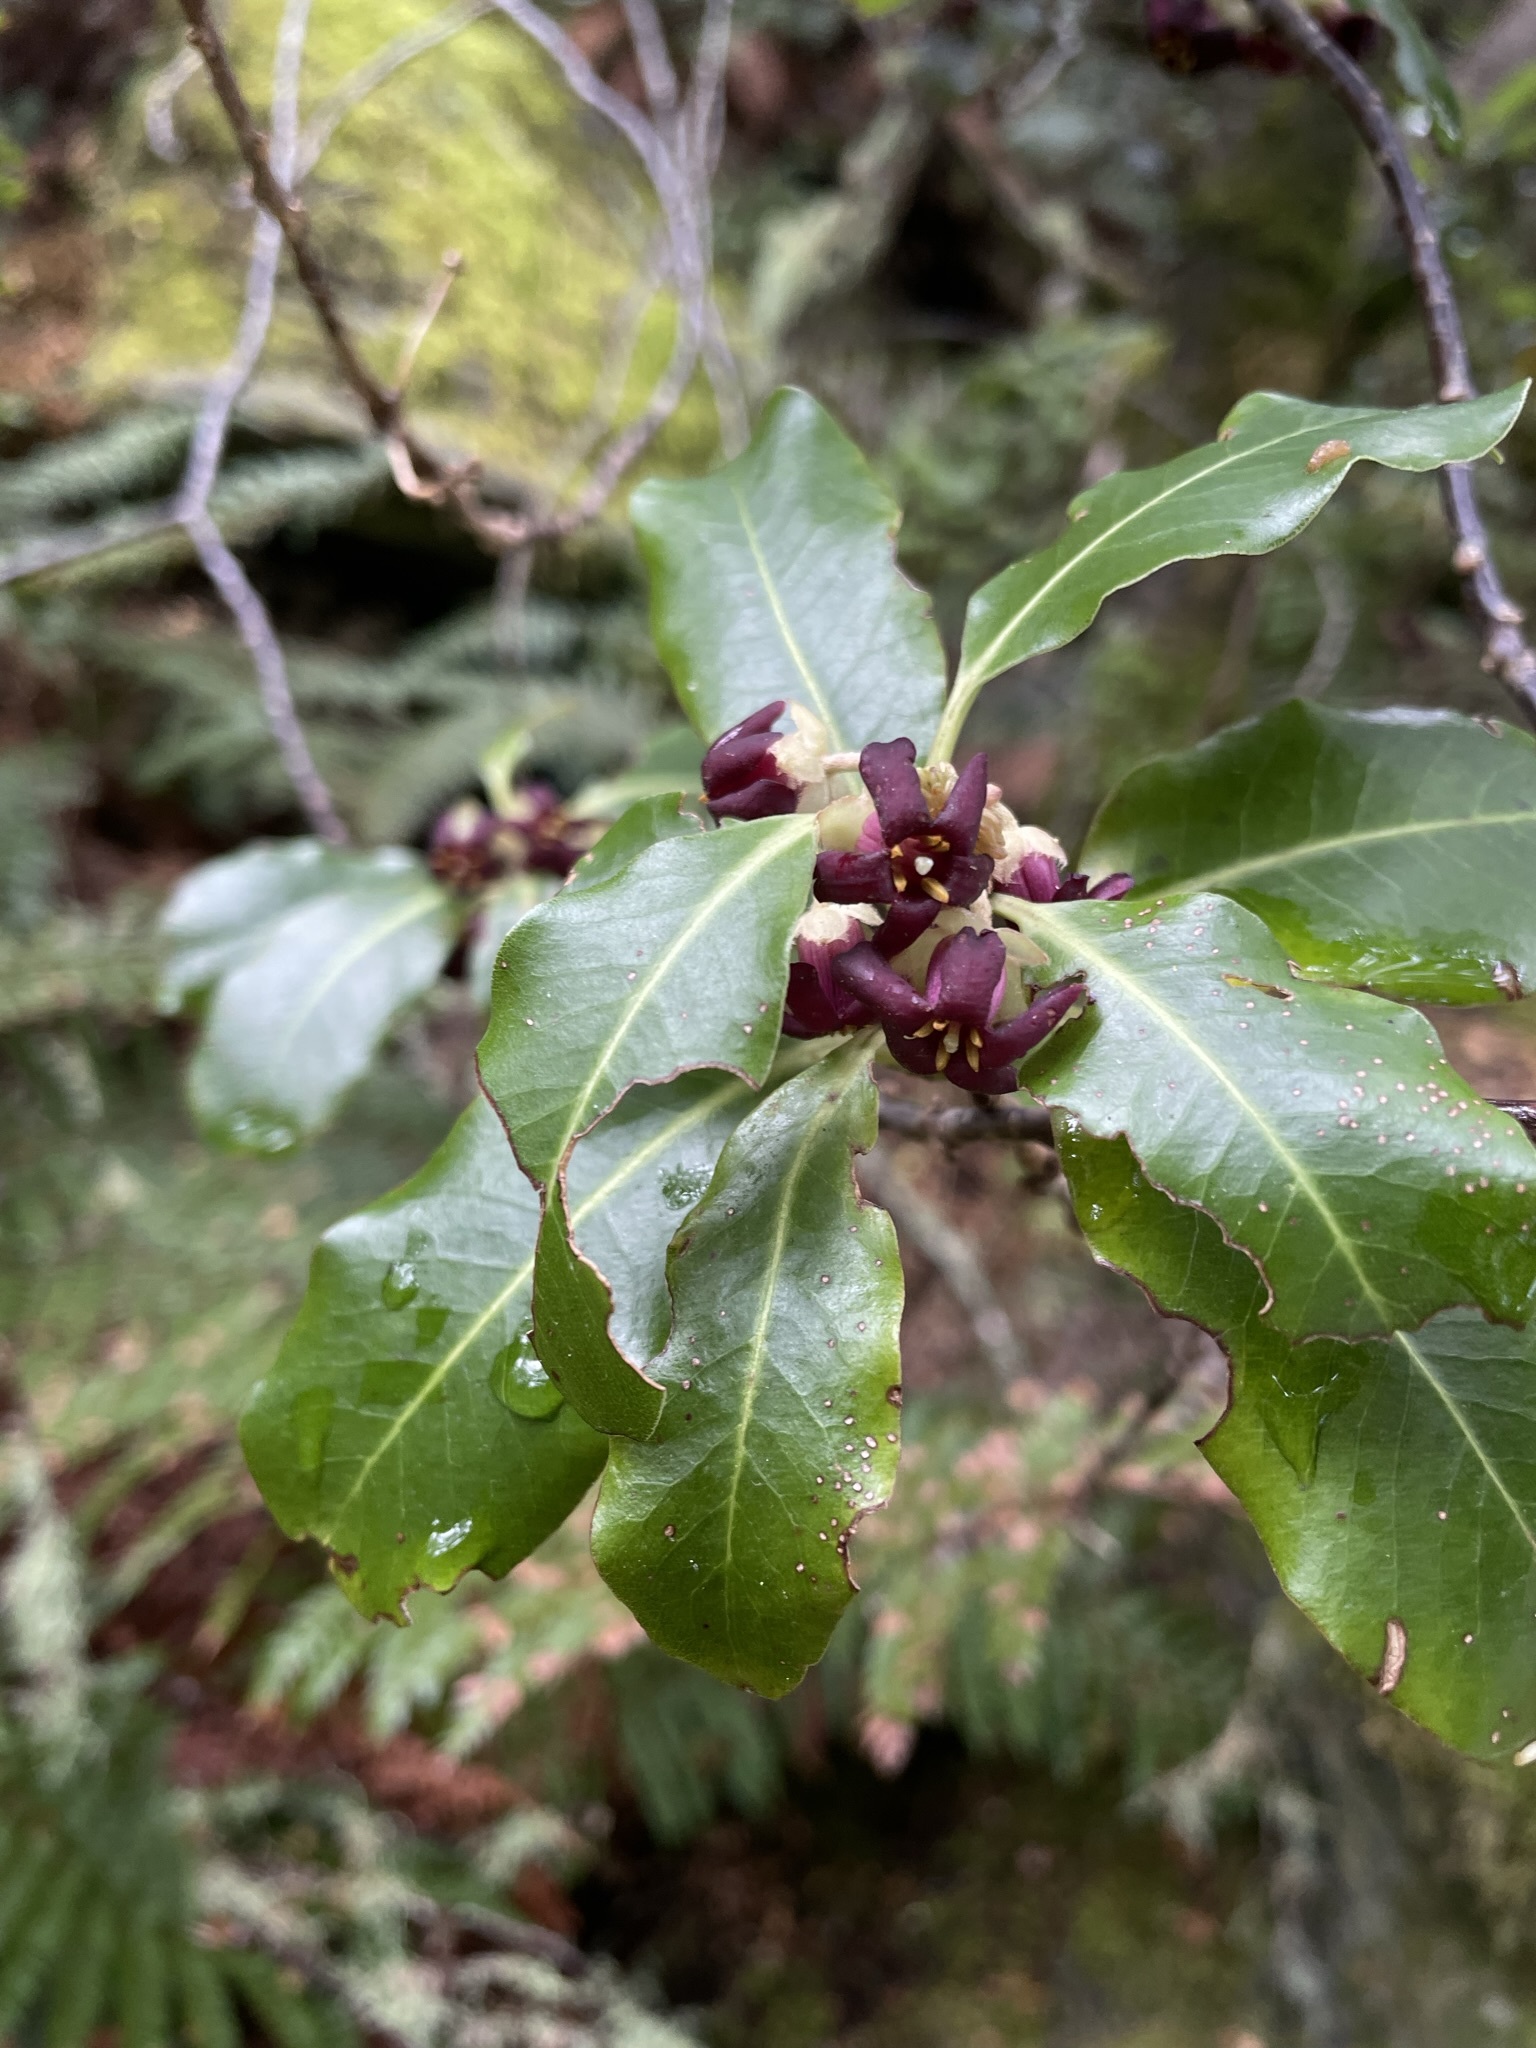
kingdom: Plantae
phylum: Tracheophyta
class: Magnoliopsida
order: Apiales
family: Pittosporaceae
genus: Pittosporum
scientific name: Pittosporum tenuifolium
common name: Kohuhu
